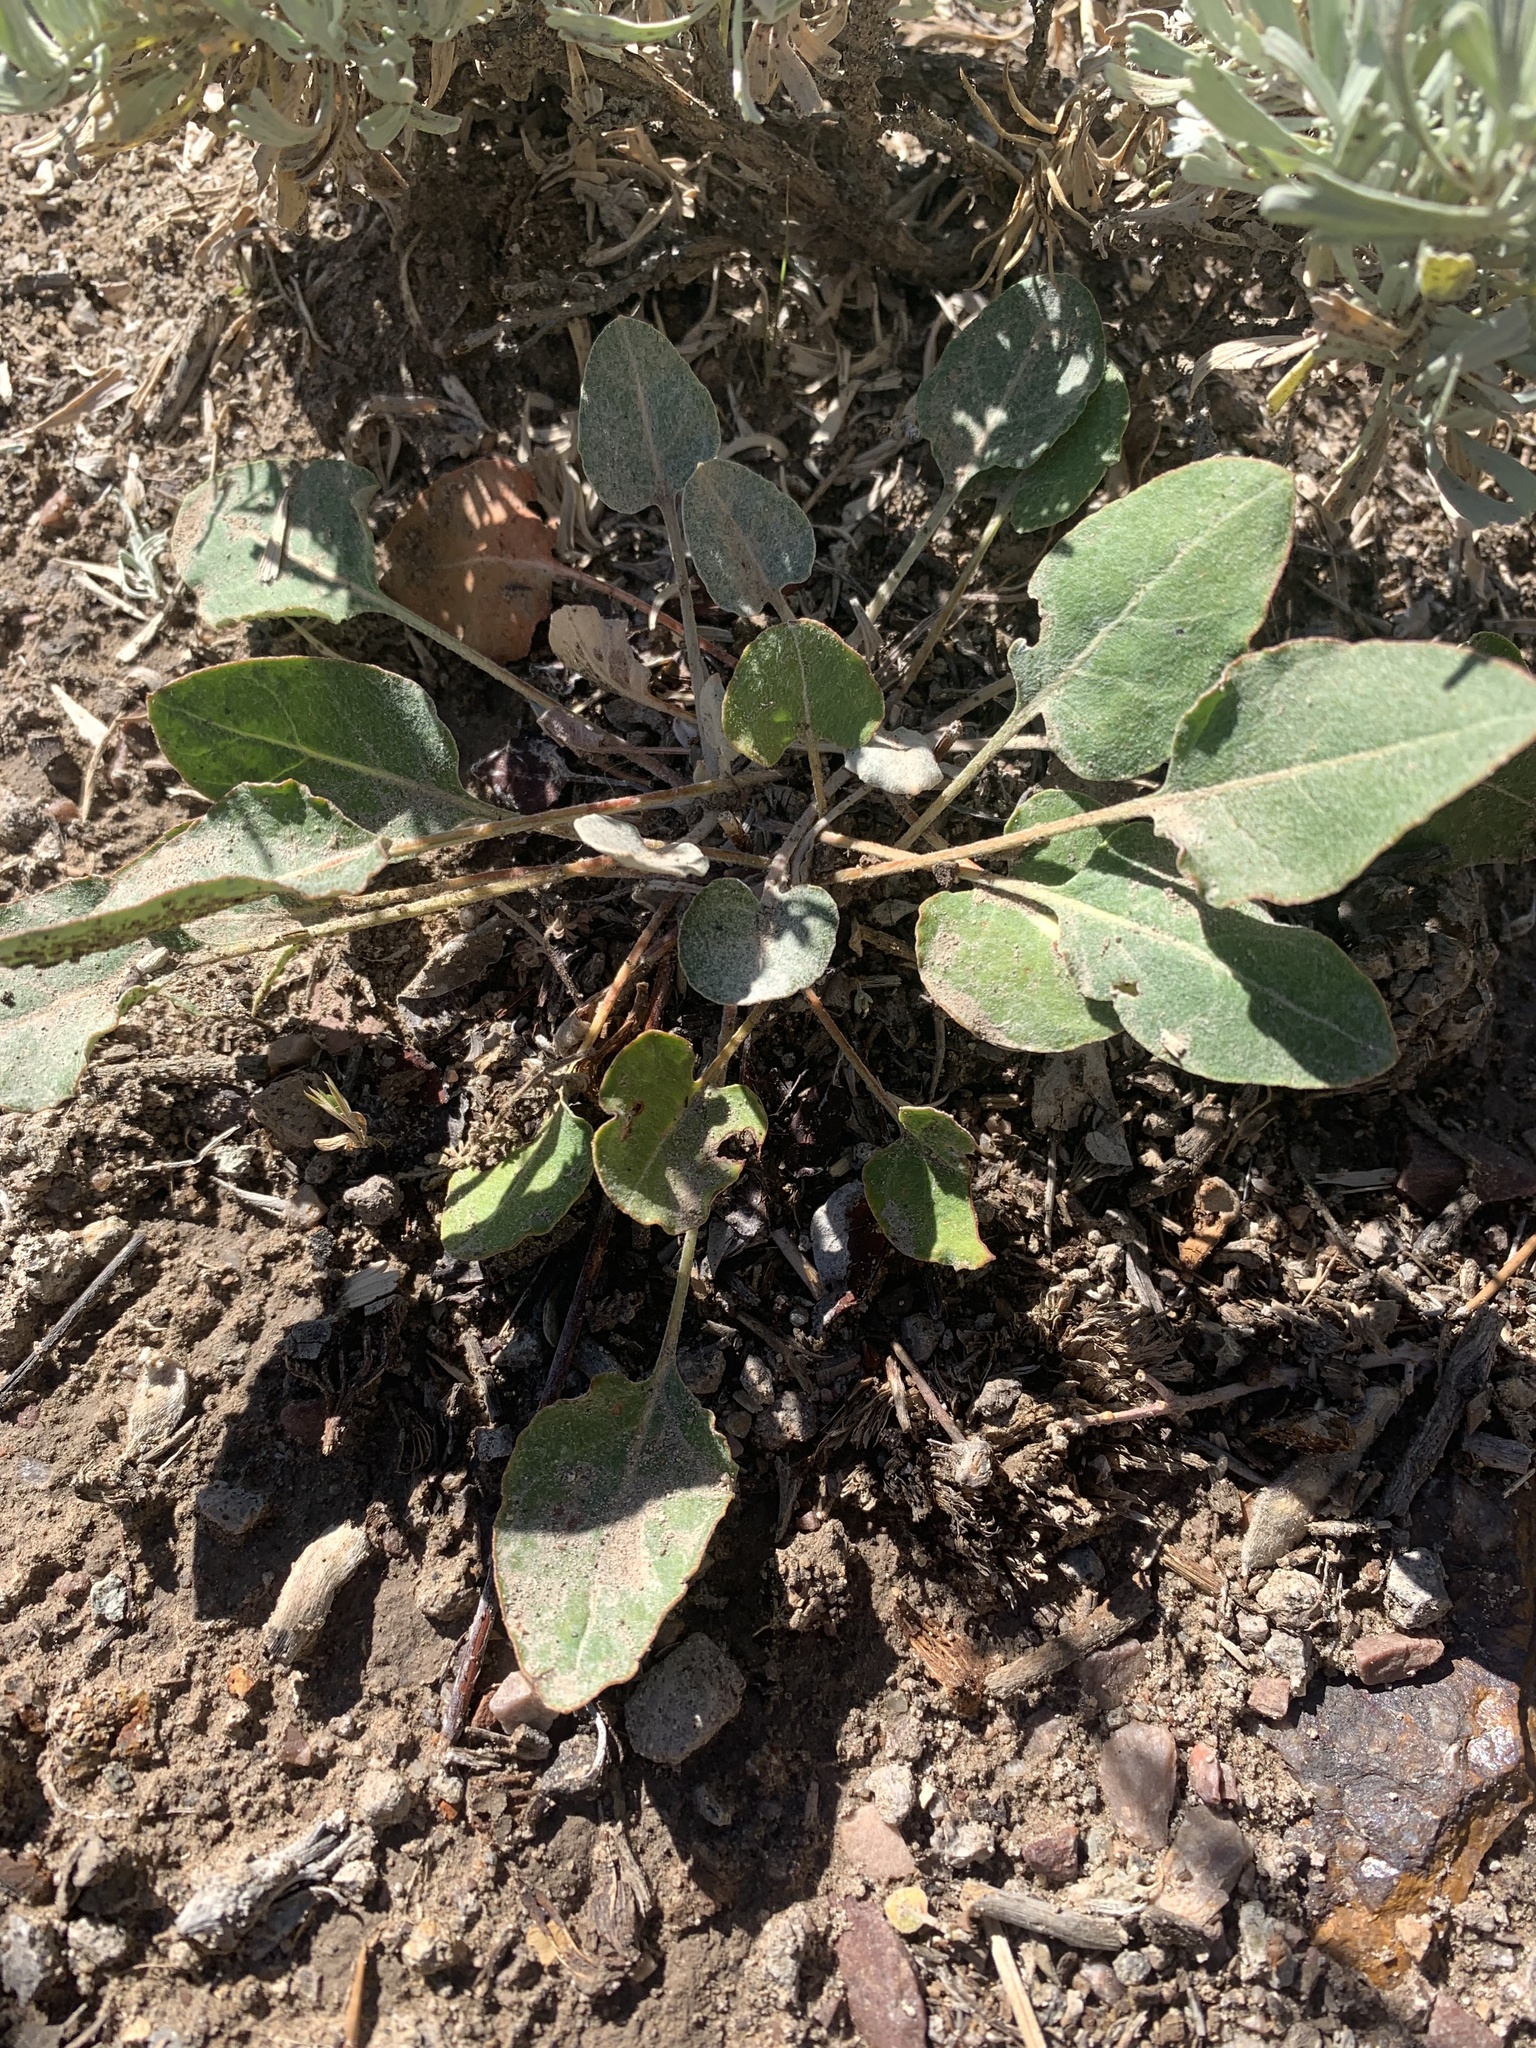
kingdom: Plantae
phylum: Tracheophyta
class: Magnoliopsida
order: Caryophyllales
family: Polygonaceae
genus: Eriogonum
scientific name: Eriogonum racemosum
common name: Redroot wild buckwheat
